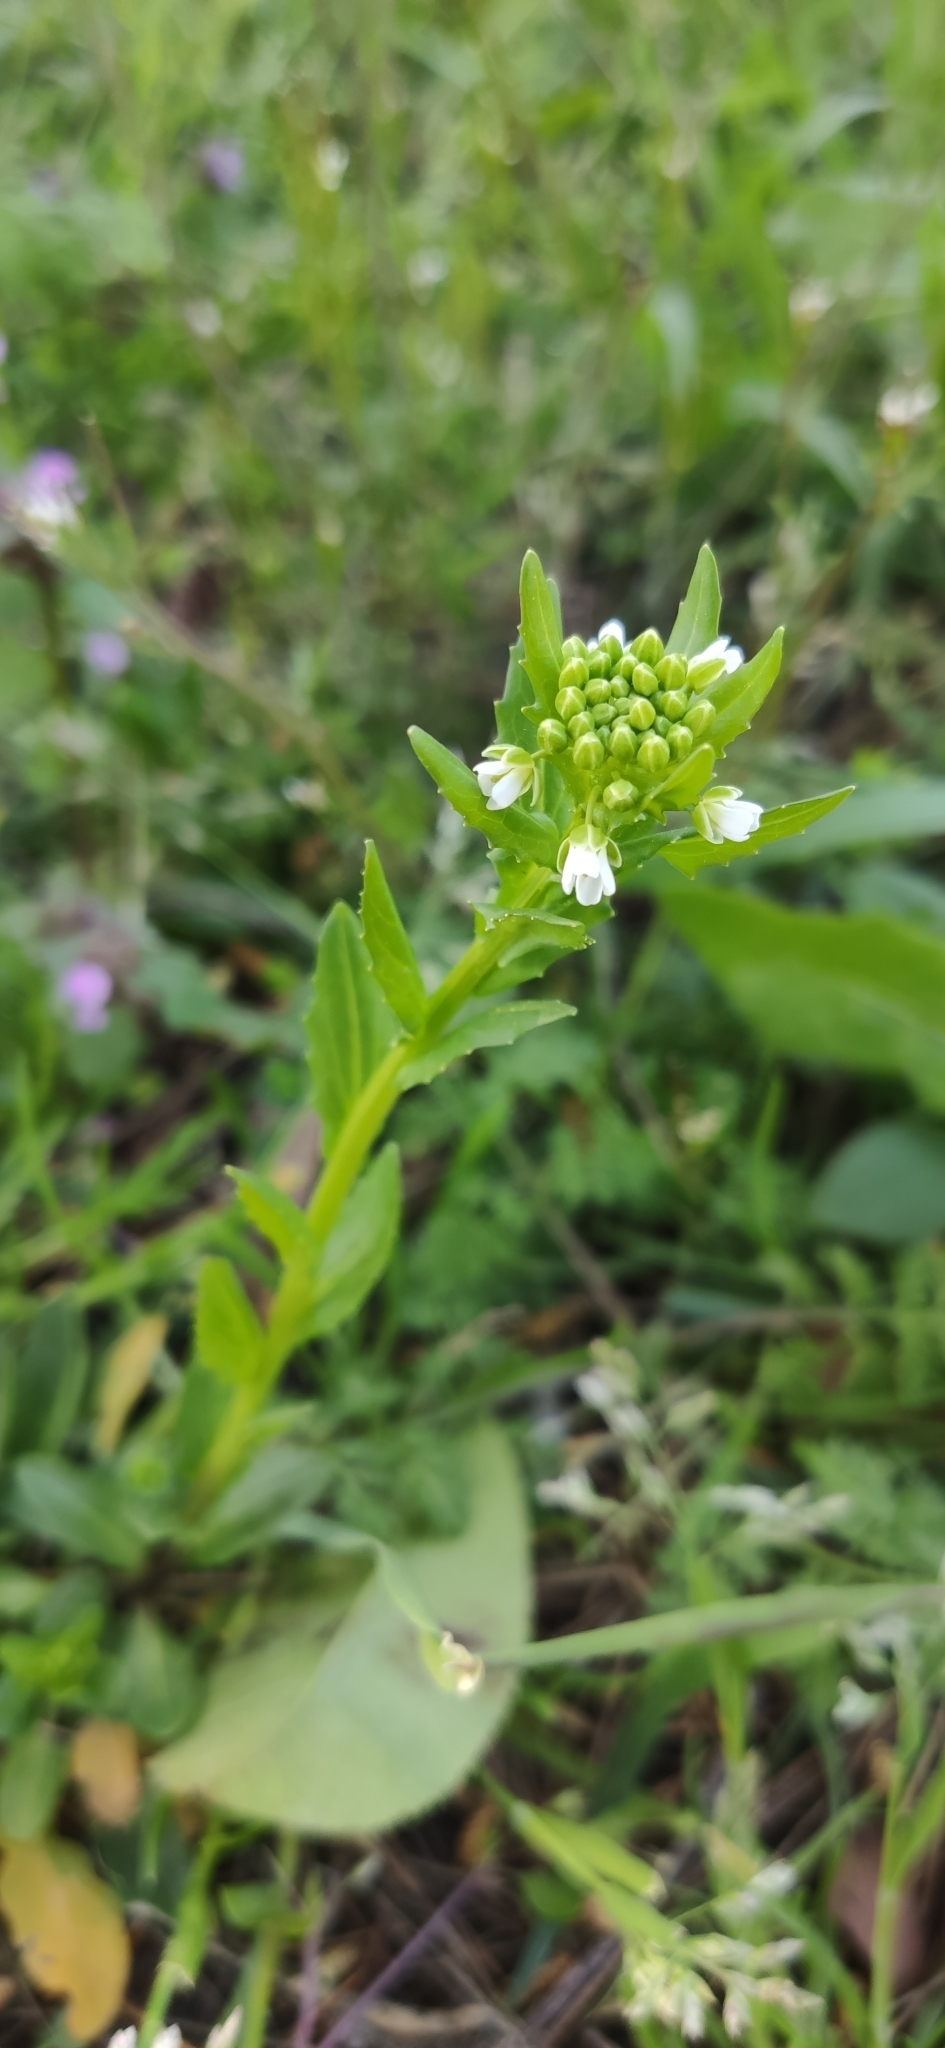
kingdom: Plantae
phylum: Tracheophyta
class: Magnoliopsida
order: Brassicales
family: Brassicaceae
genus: Thlaspi
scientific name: Thlaspi arvense
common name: Field pennycress
